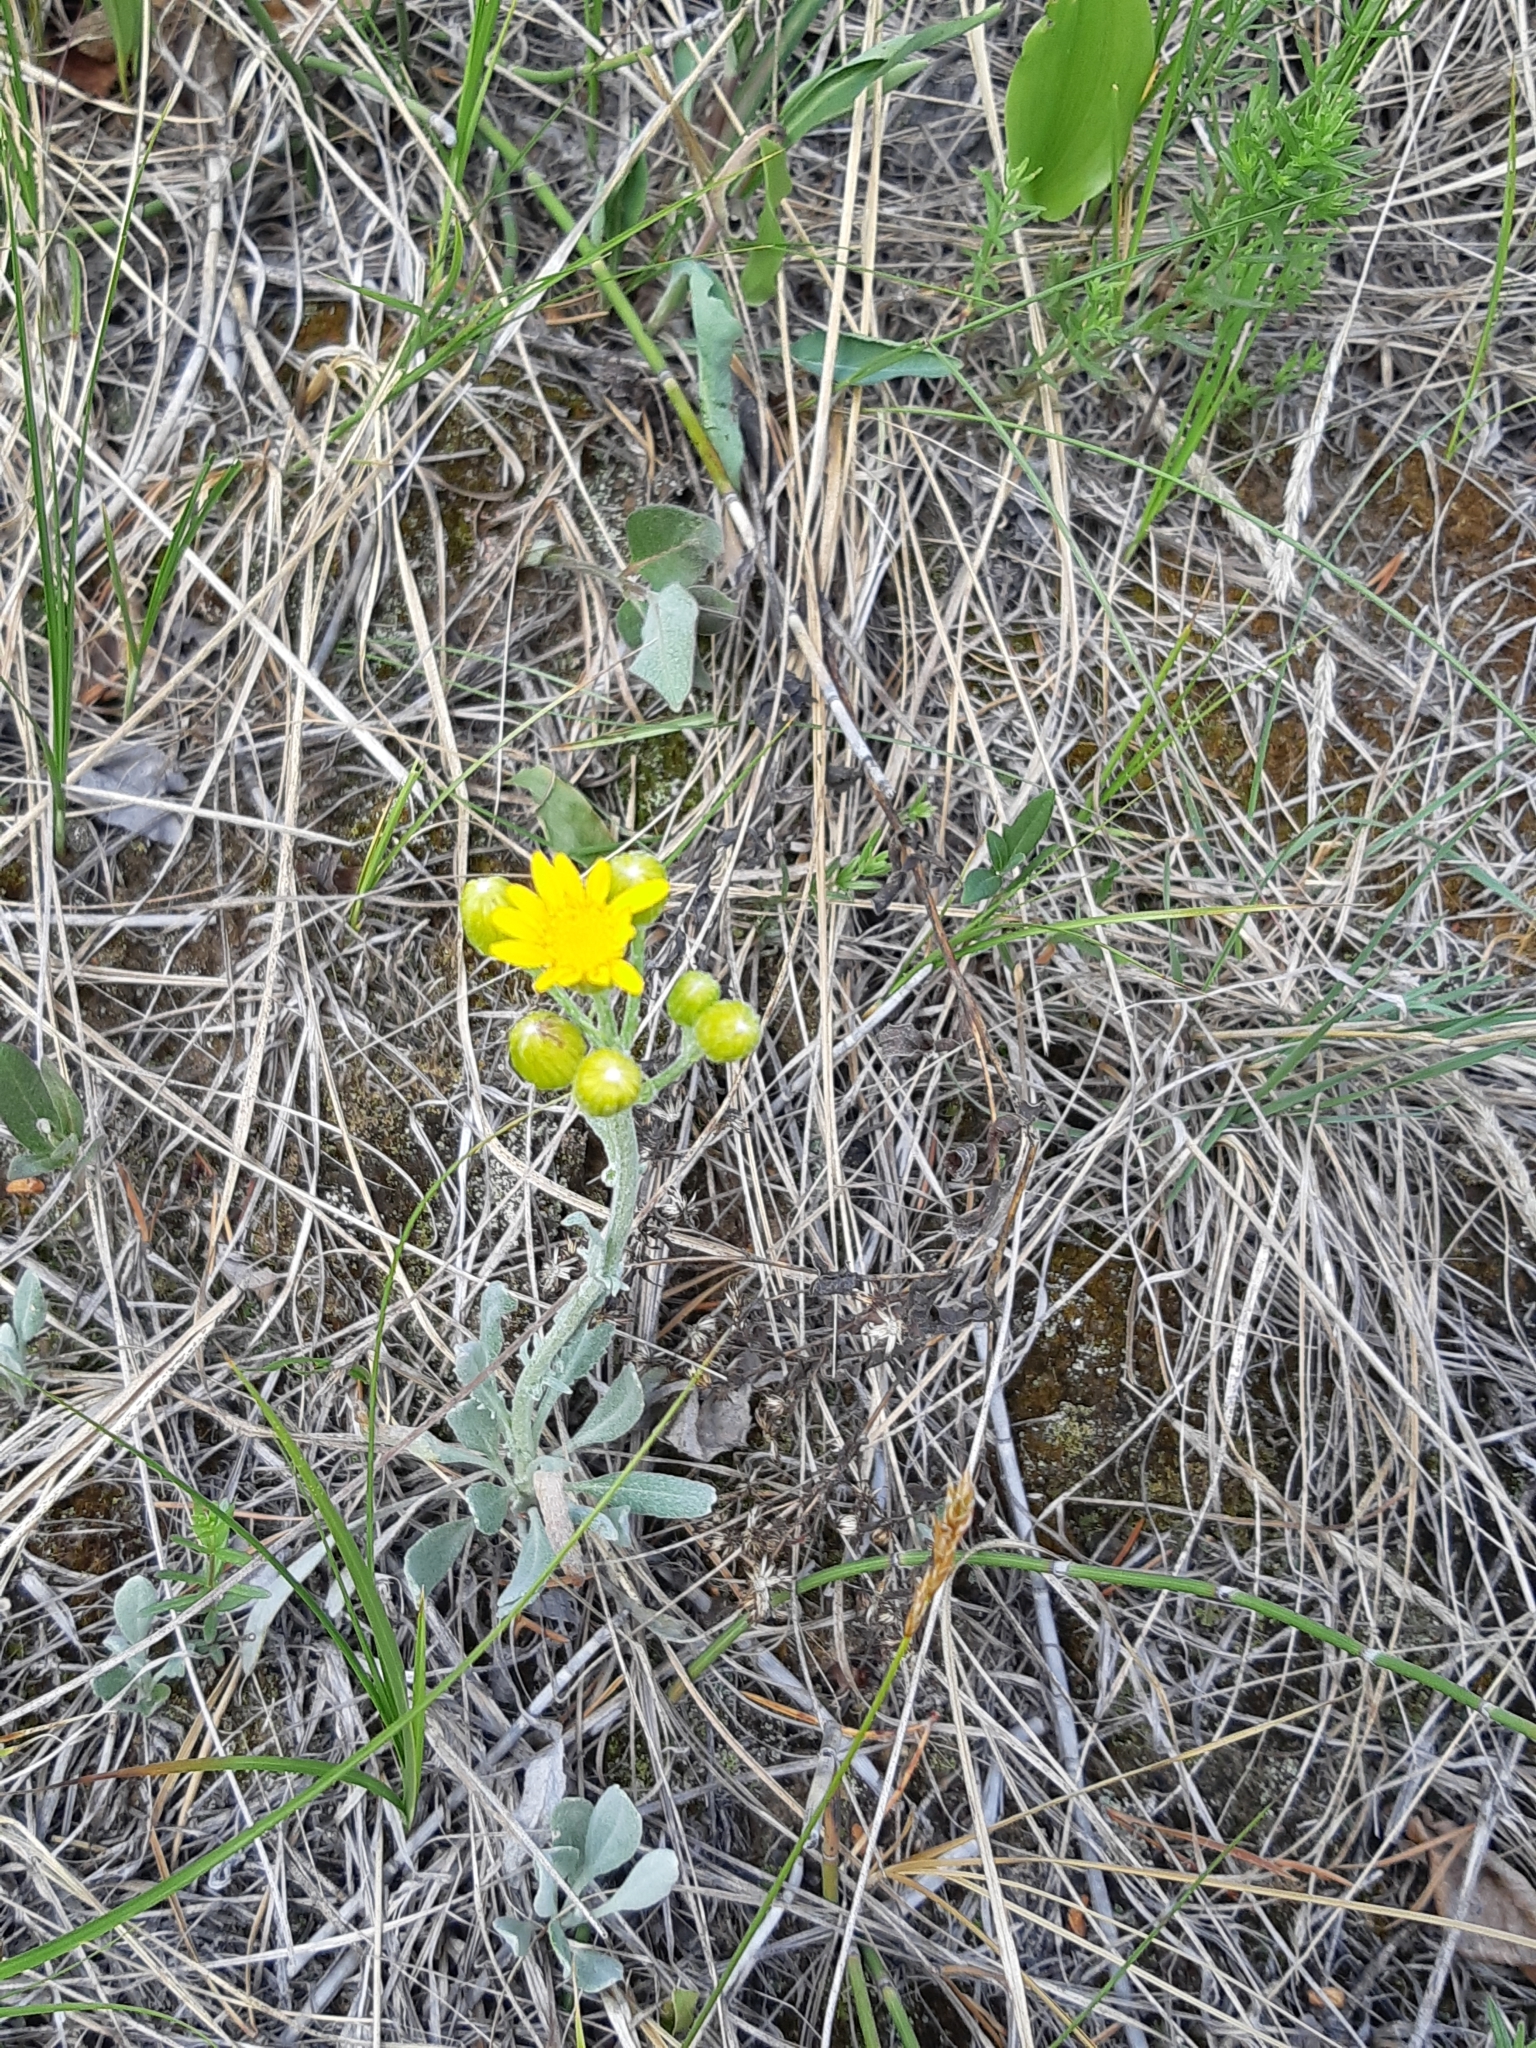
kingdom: Plantae
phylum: Tracheophyta
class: Magnoliopsida
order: Asterales
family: Asteraceae
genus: Packera
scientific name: Packera cana
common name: Woolly groundsel
